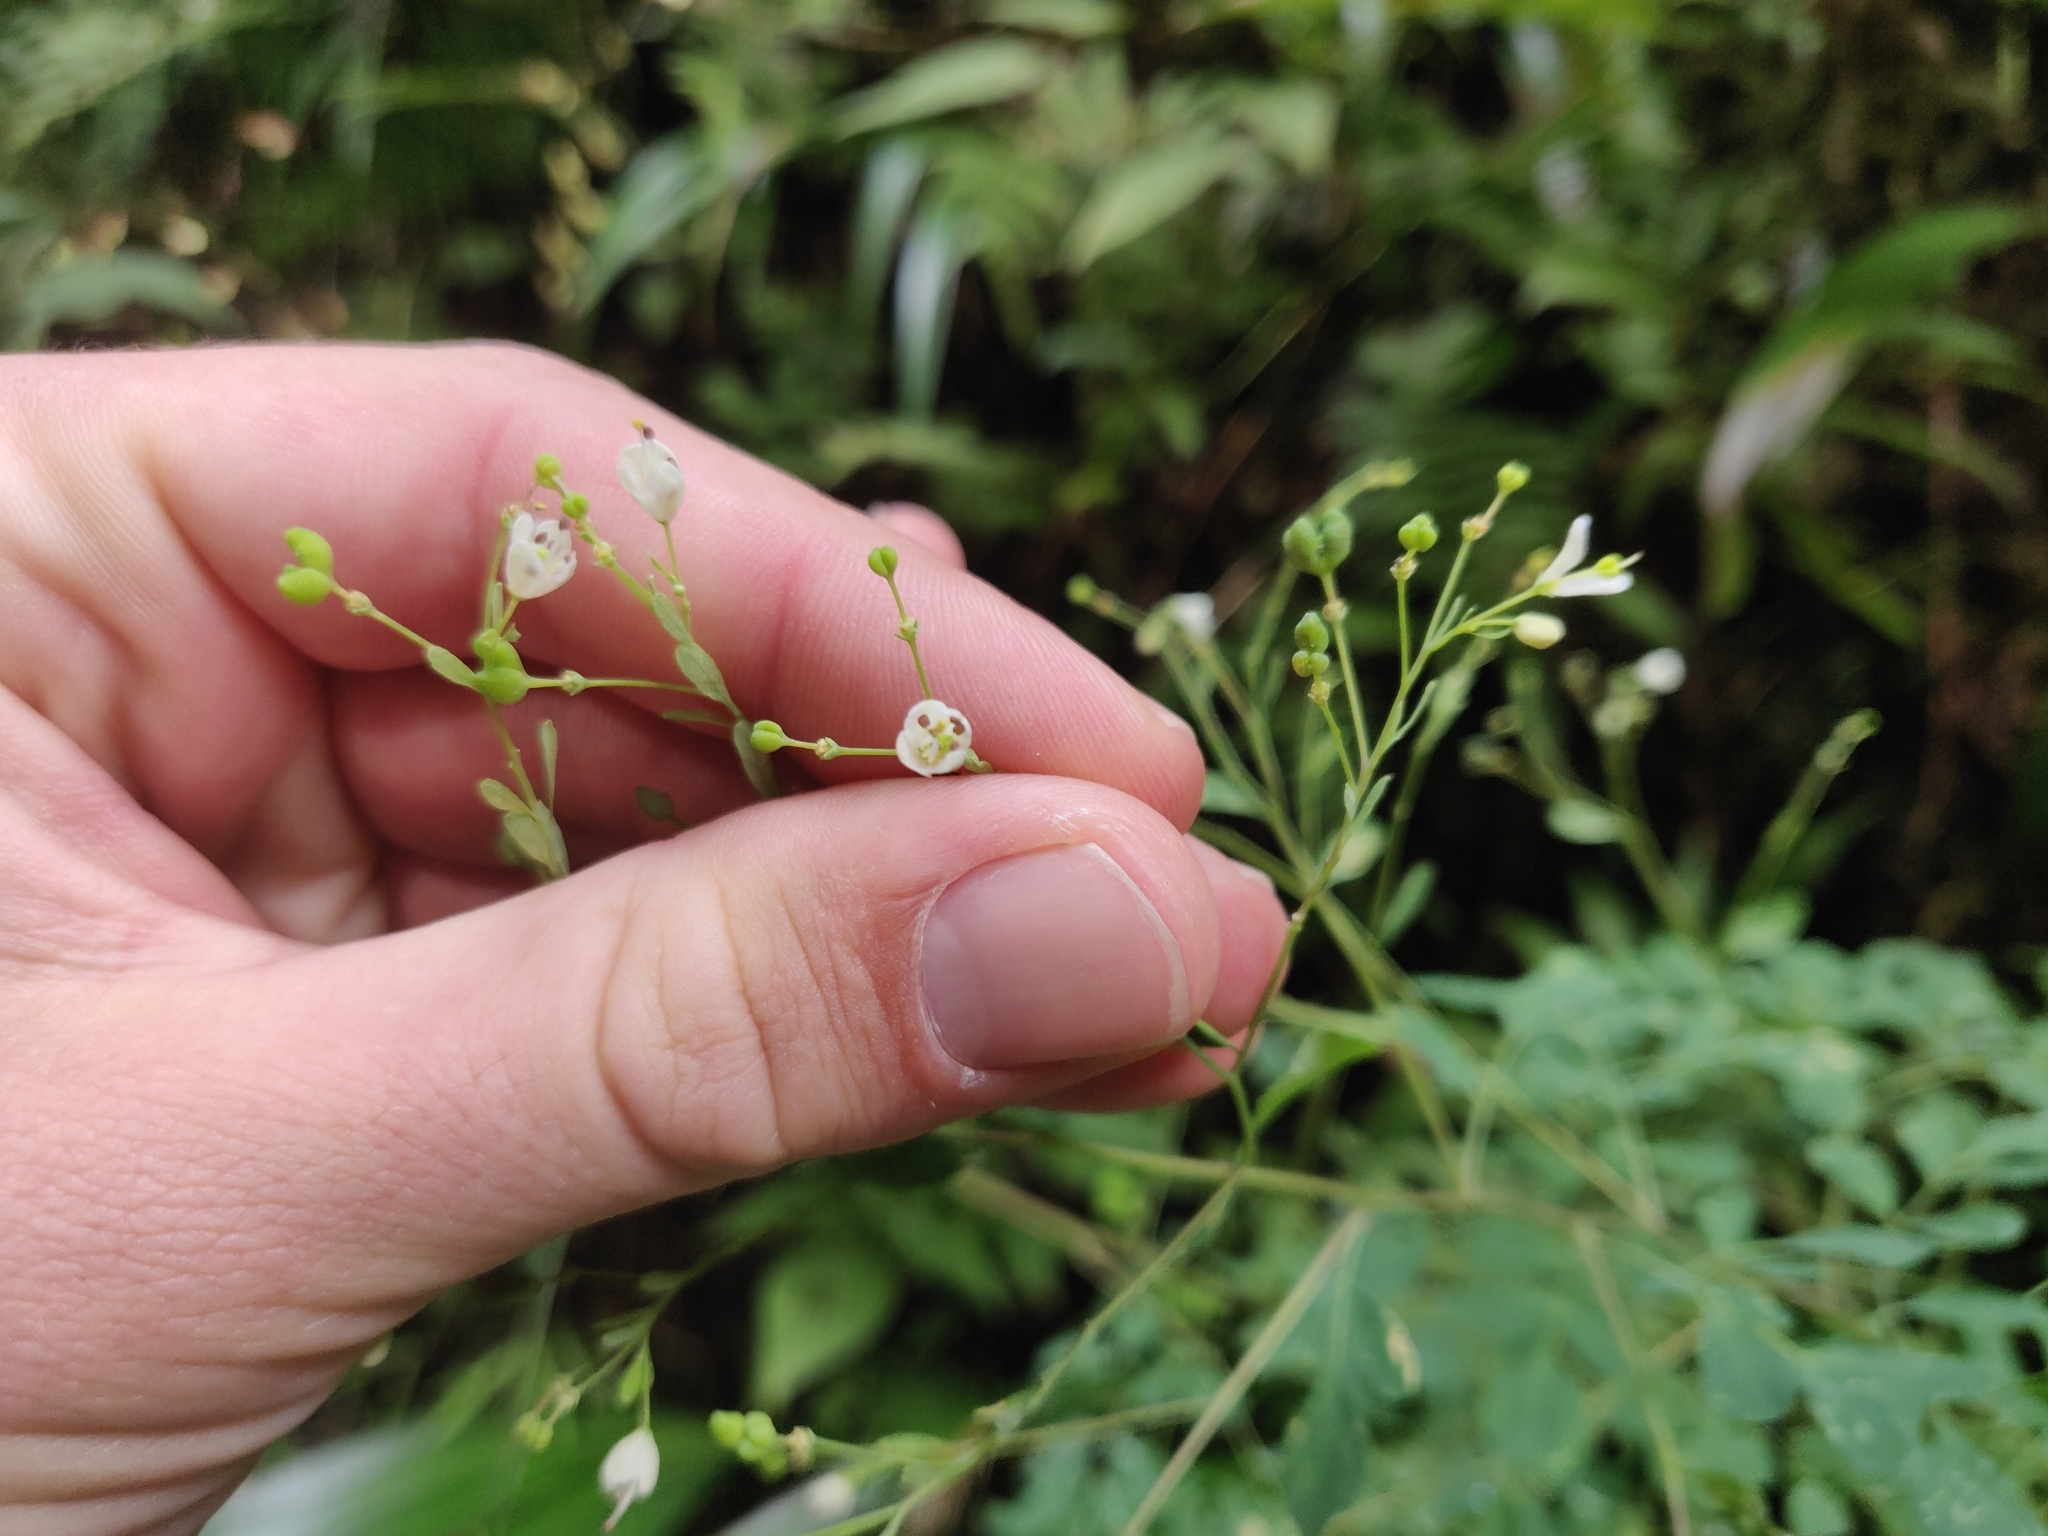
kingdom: Plantae
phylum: Tracheophyta
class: Magnoliopsida
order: Sapindales
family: Rutaceae
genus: Boenninghausenia
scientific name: Boenninghausenia albiflora
